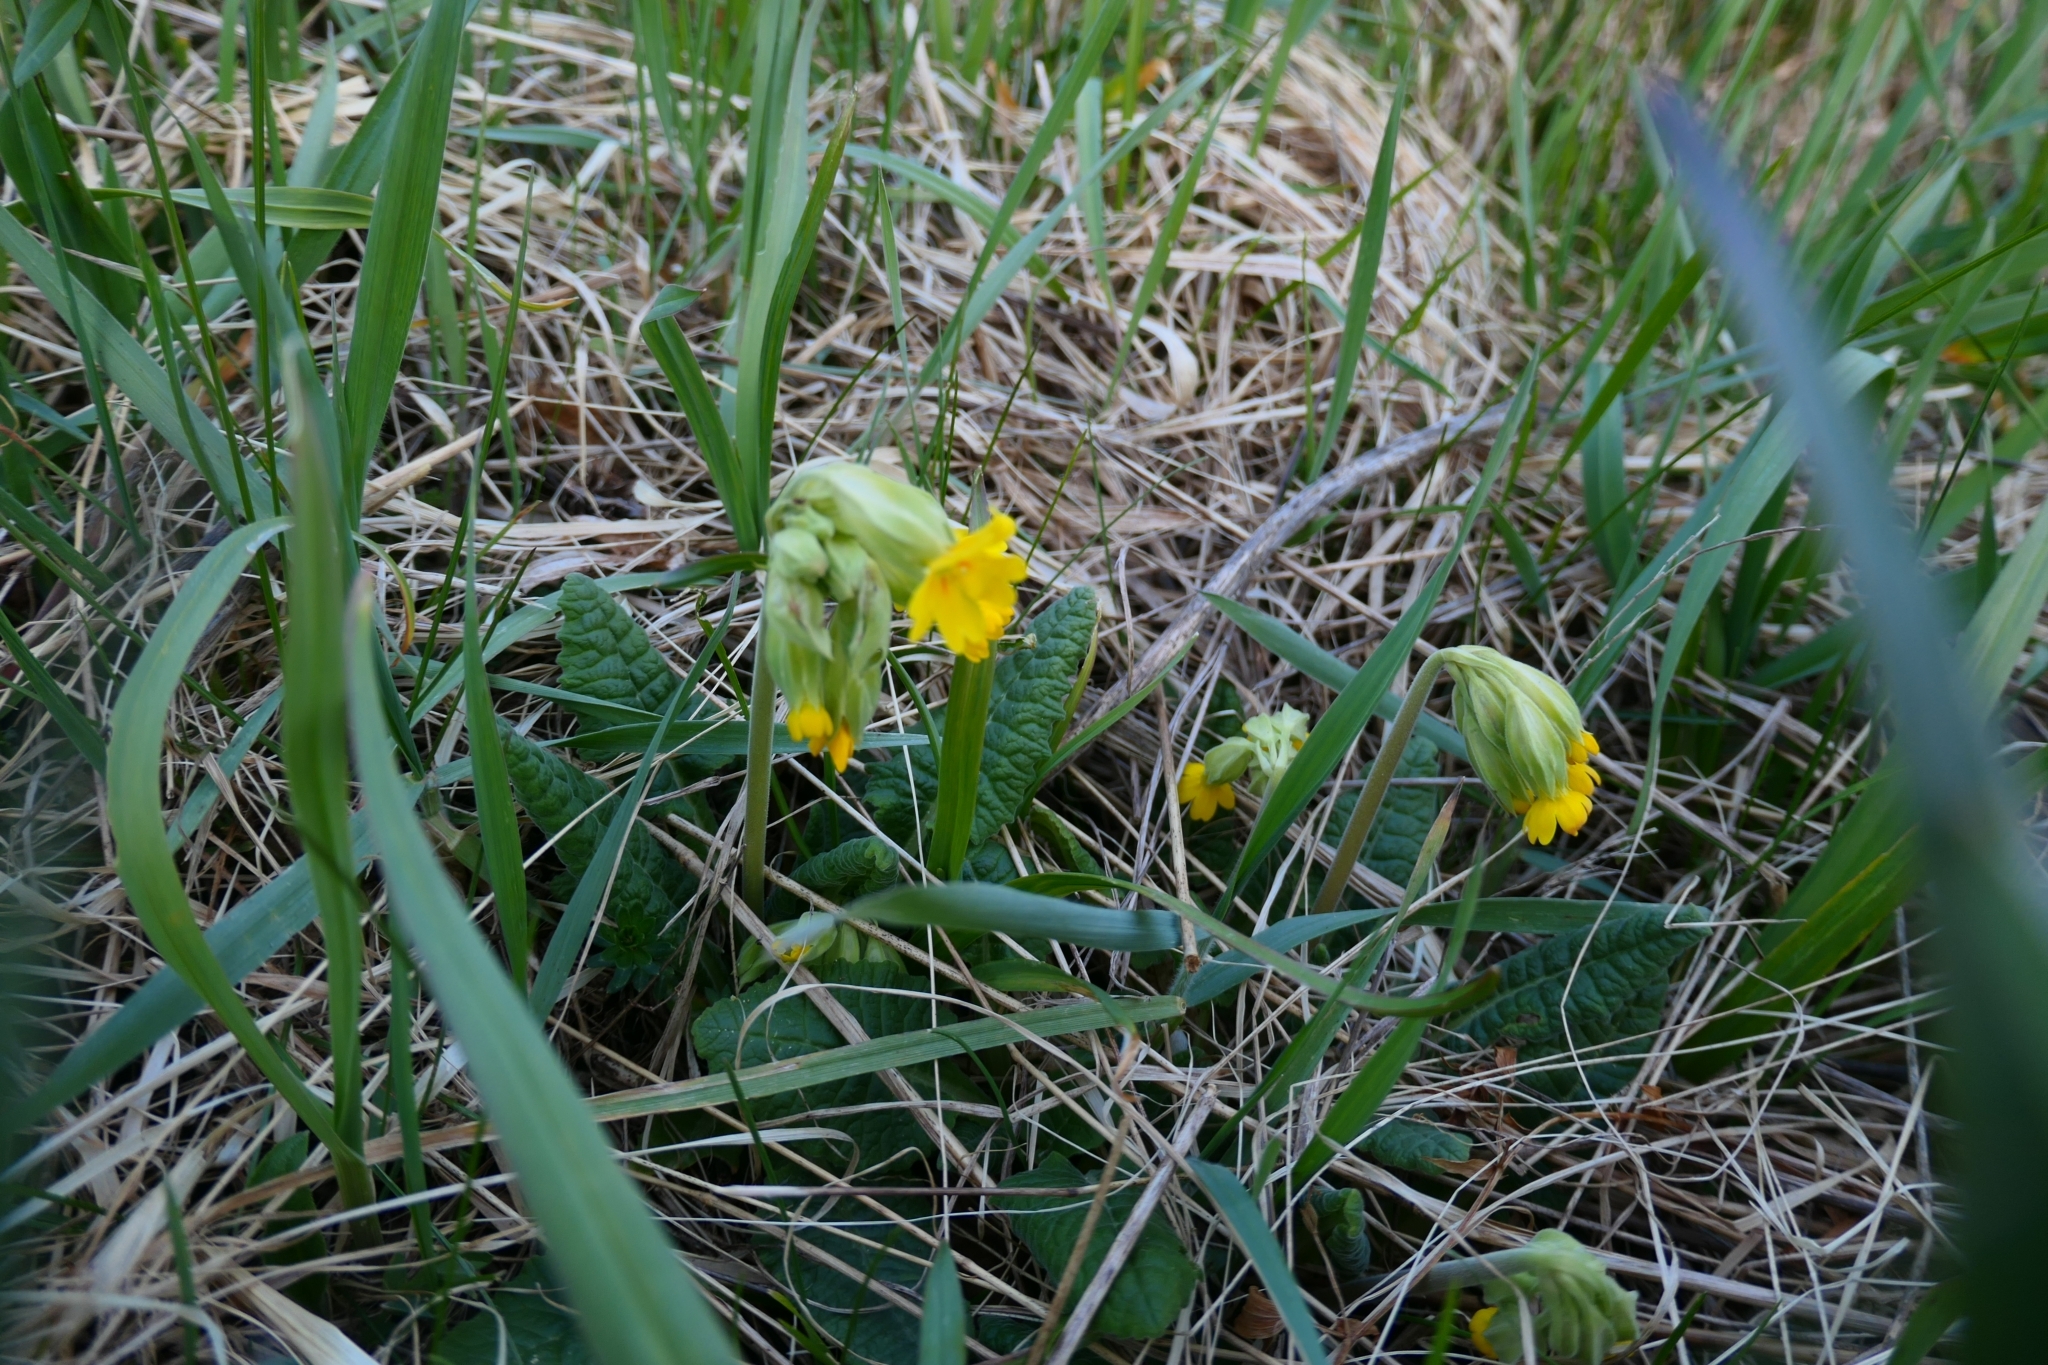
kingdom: Plantae
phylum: Tracheophyta
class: Magnoliopsida
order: Ericales
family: Primulaceae
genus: Primula
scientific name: Primula elatior
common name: Oxlip
